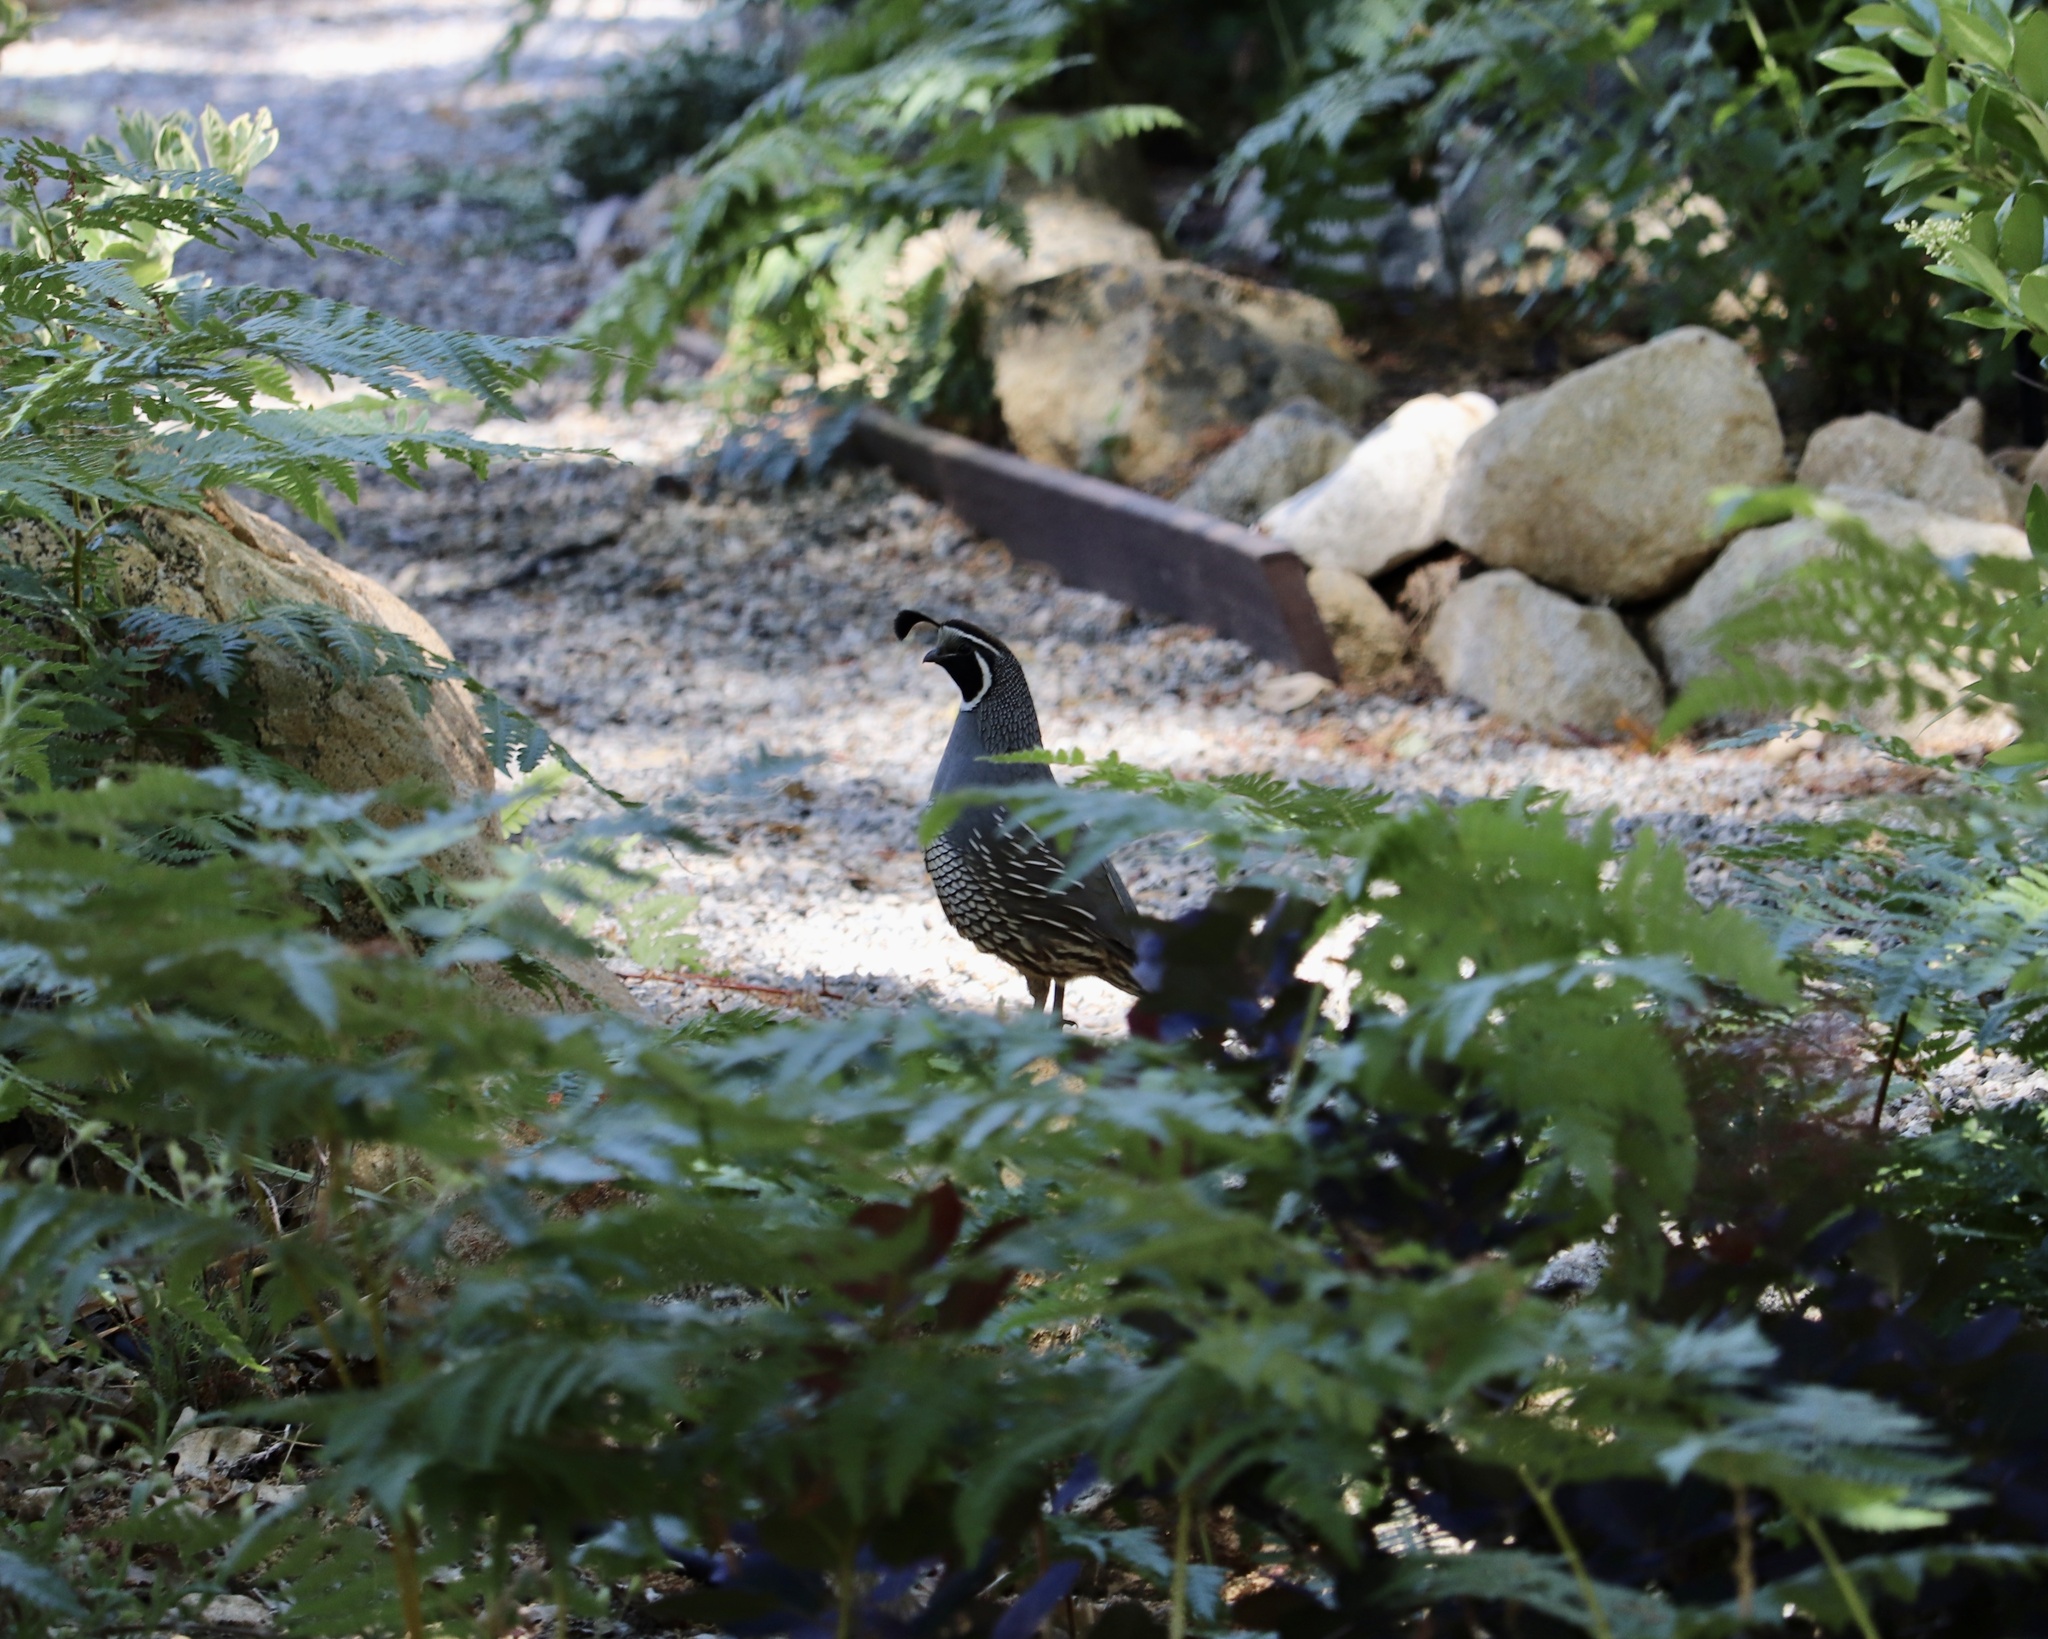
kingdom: Animalia
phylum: Chordata
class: Aves
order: Galliformes
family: Odontophoridae
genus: Callipepla
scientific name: Callipepla californica
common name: California quail
